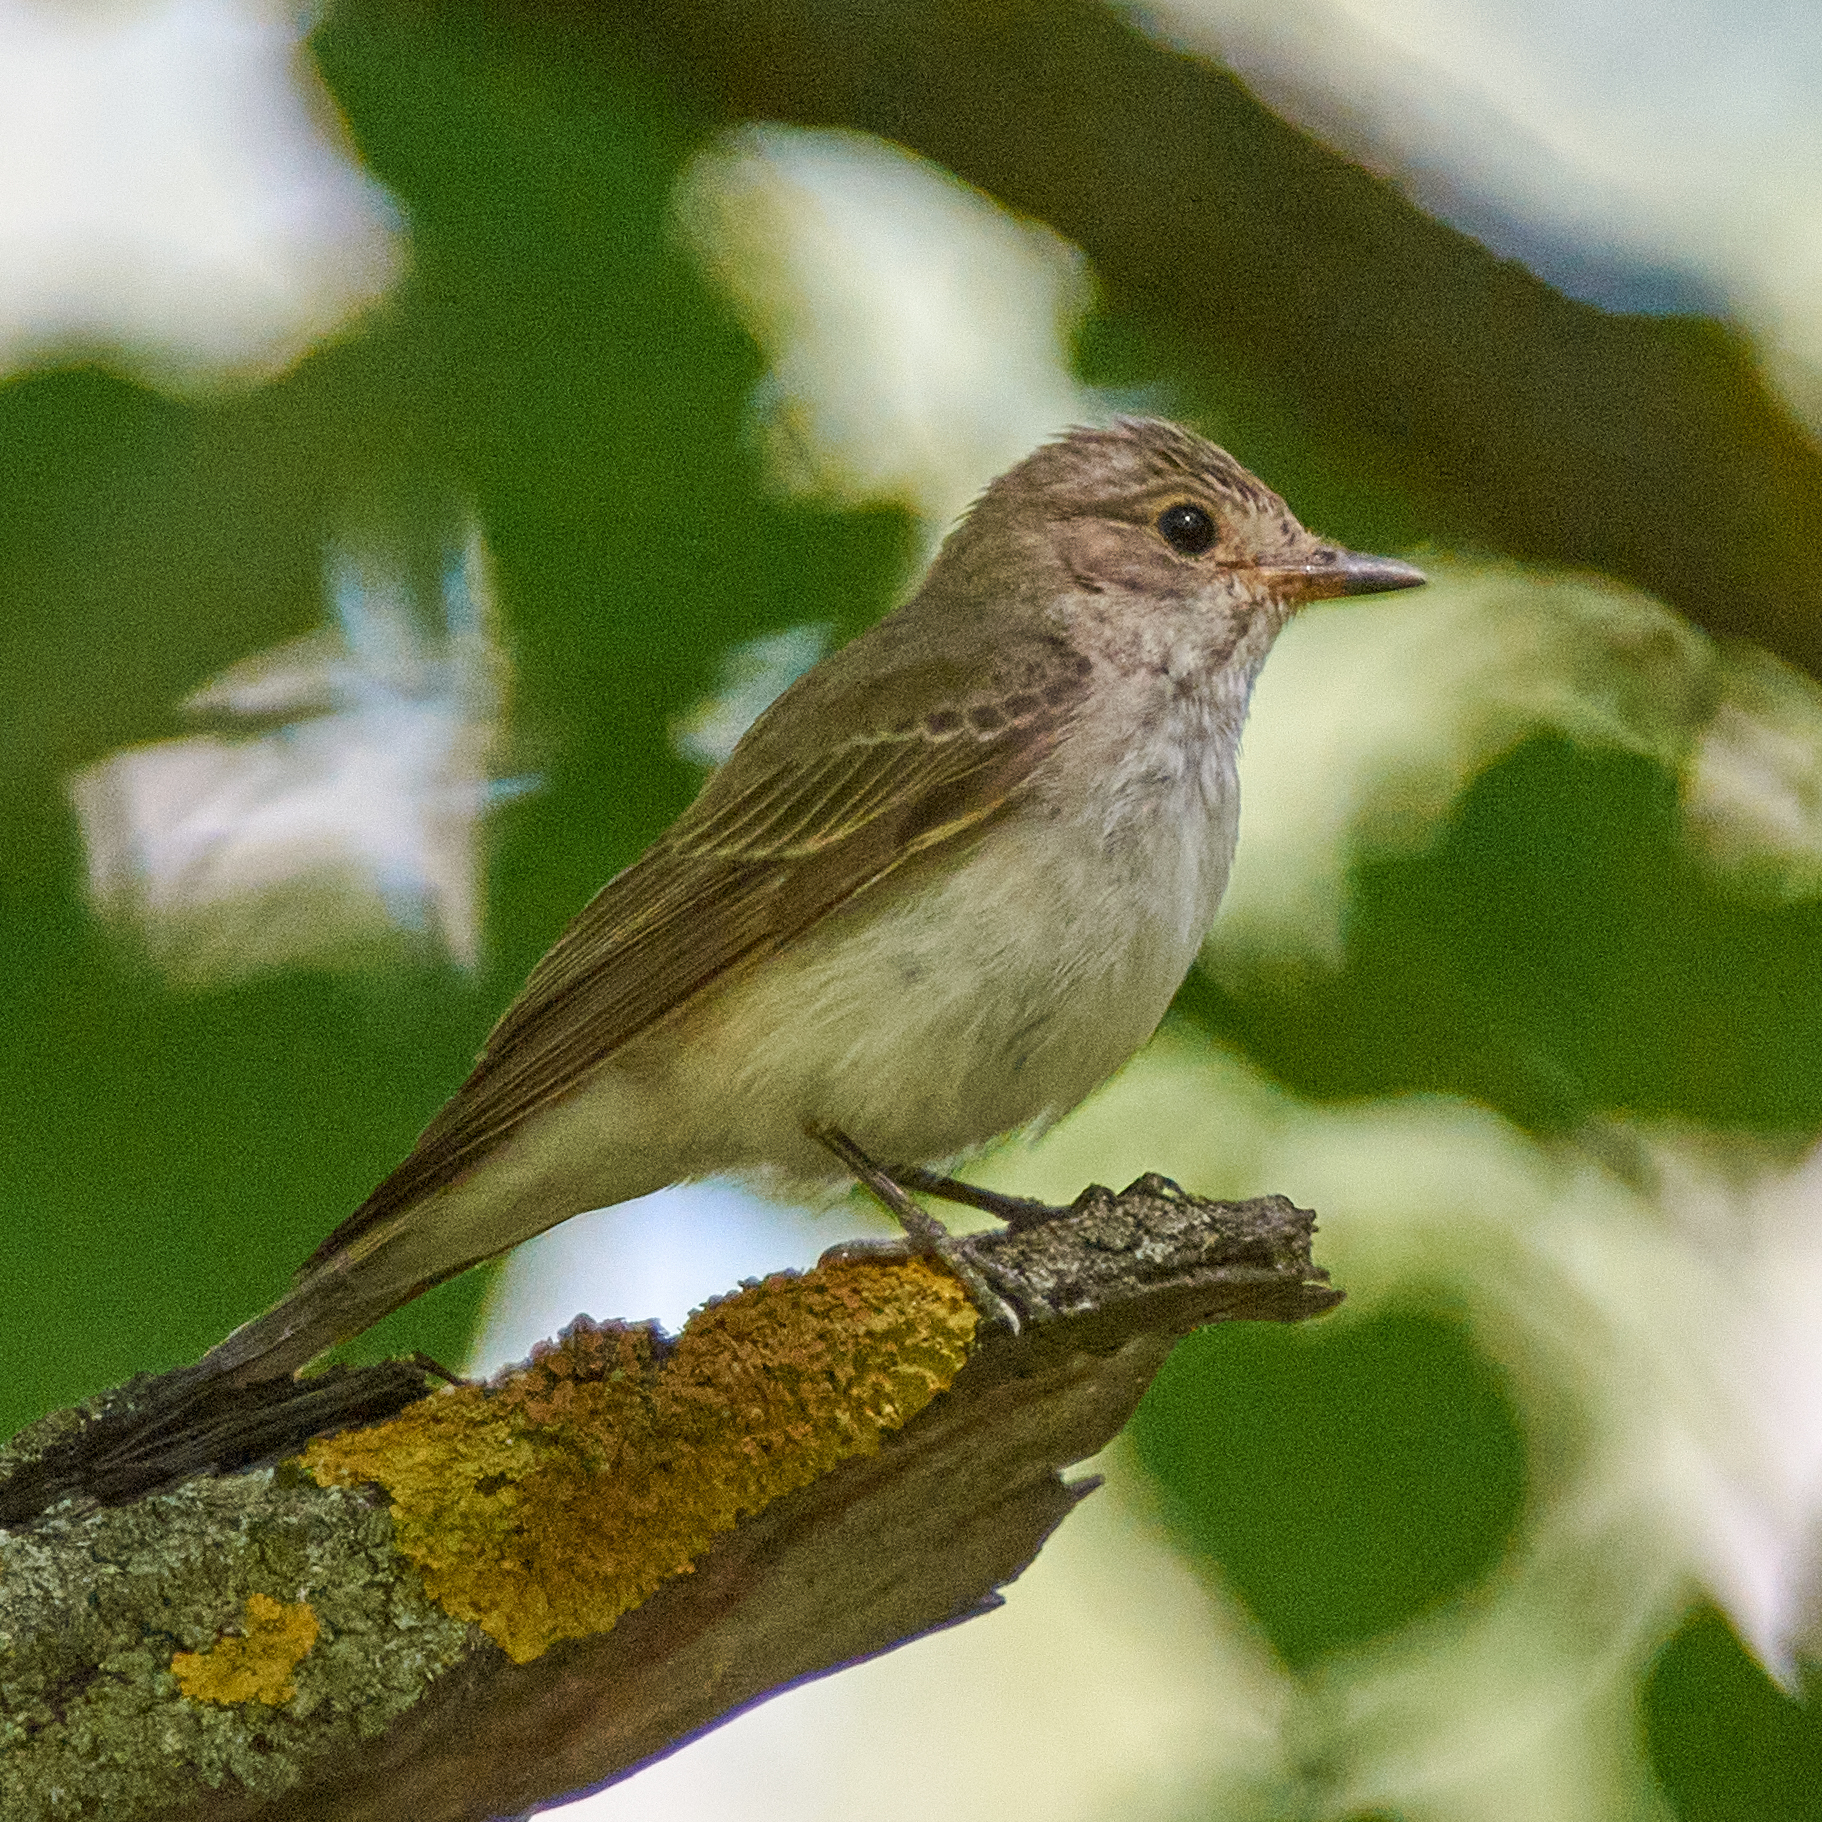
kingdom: Animalia
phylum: Chordata
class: Aves
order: Passeriformes
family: Muscicapidae
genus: Muscicapa
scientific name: Muscicapa striata
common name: Spotted flycatcher
